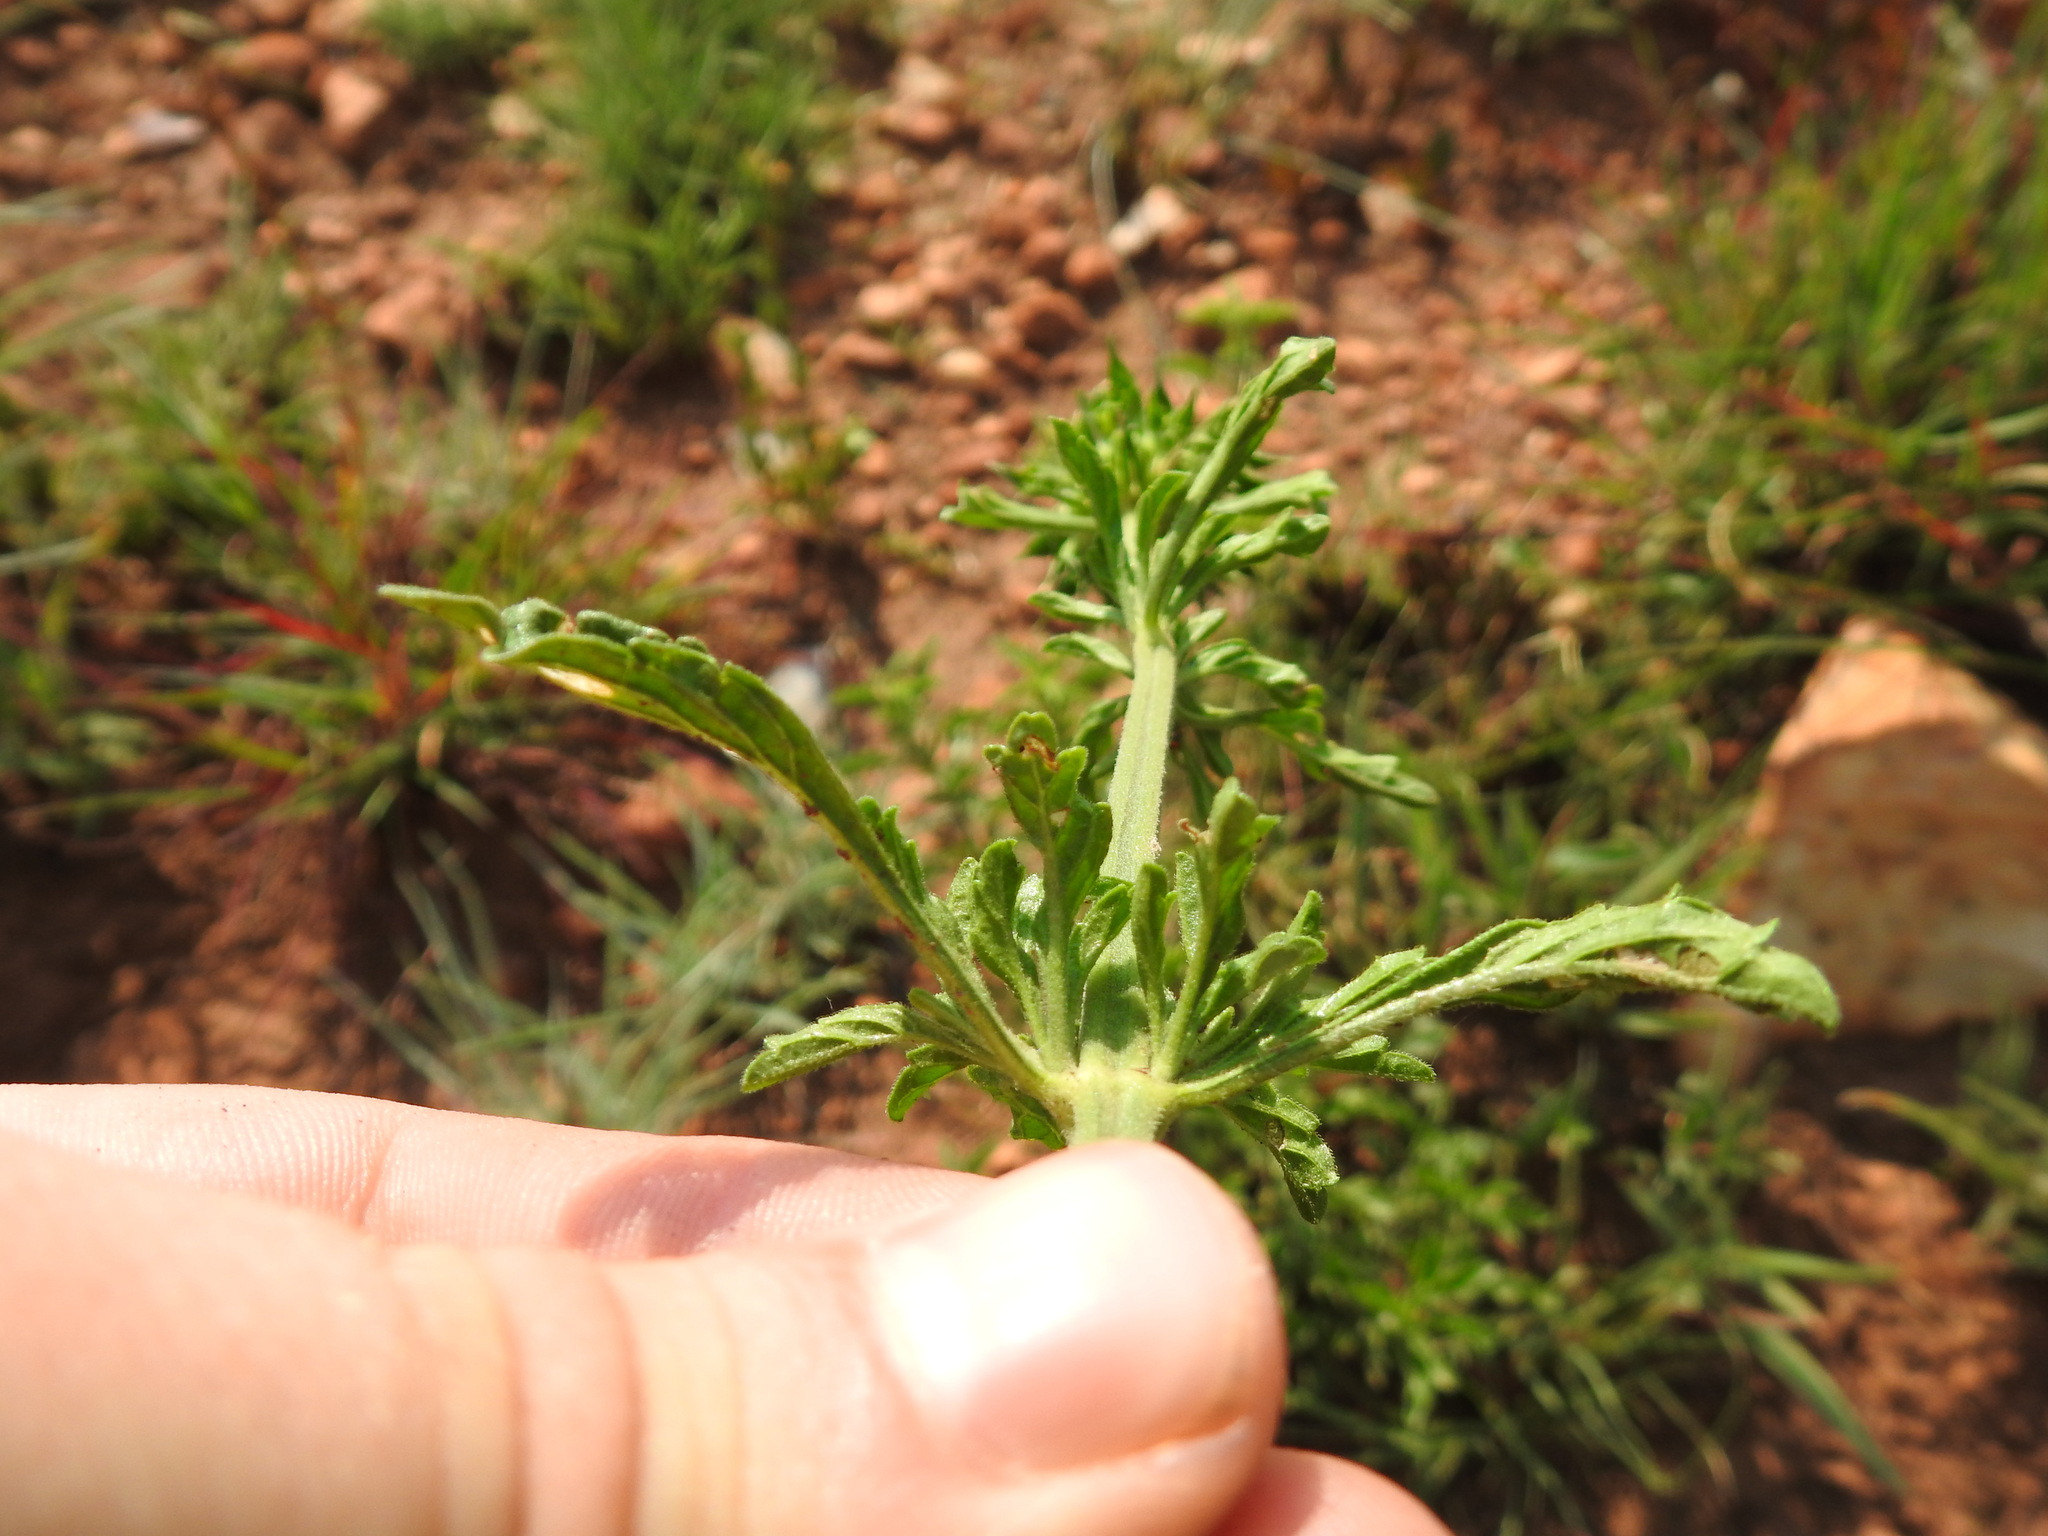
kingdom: Plantae
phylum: Tracheophyta
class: Magnoliopsida
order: Lamiales
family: Lamiaceae
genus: Leonotis
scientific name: Leonotis ocymifolia
